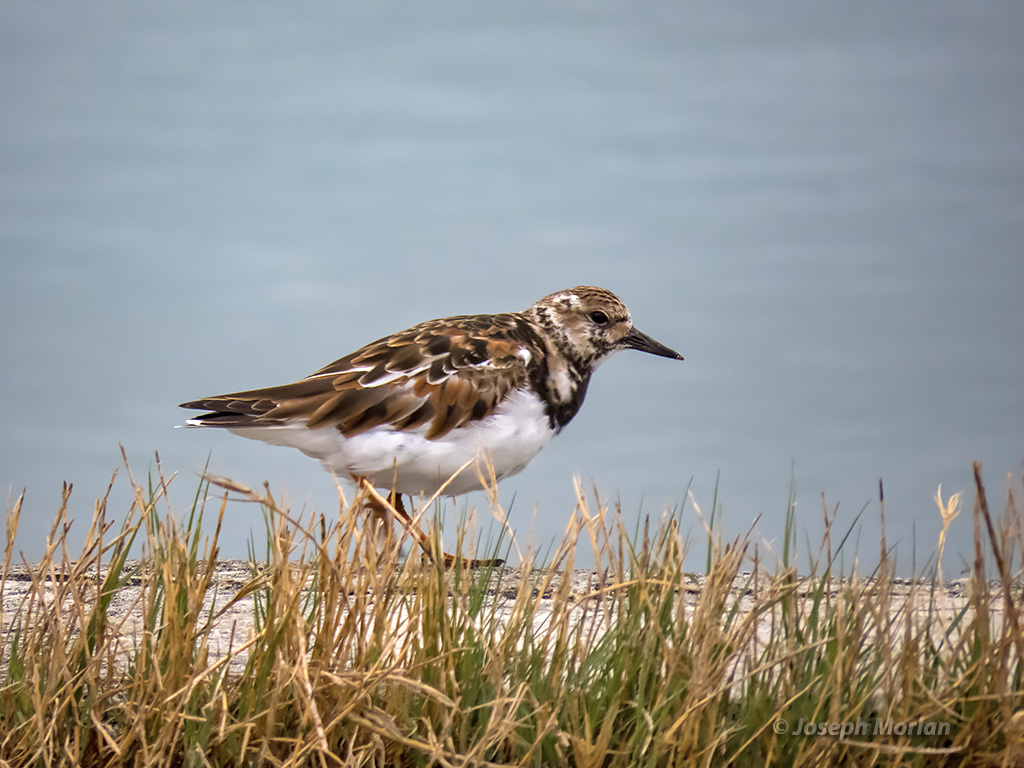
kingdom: Animalia
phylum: Chordata
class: Aves
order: Charadriiformes
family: Scolopacidae
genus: Arenaria
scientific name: Arenaria interpres
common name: Ruddy turnstone
